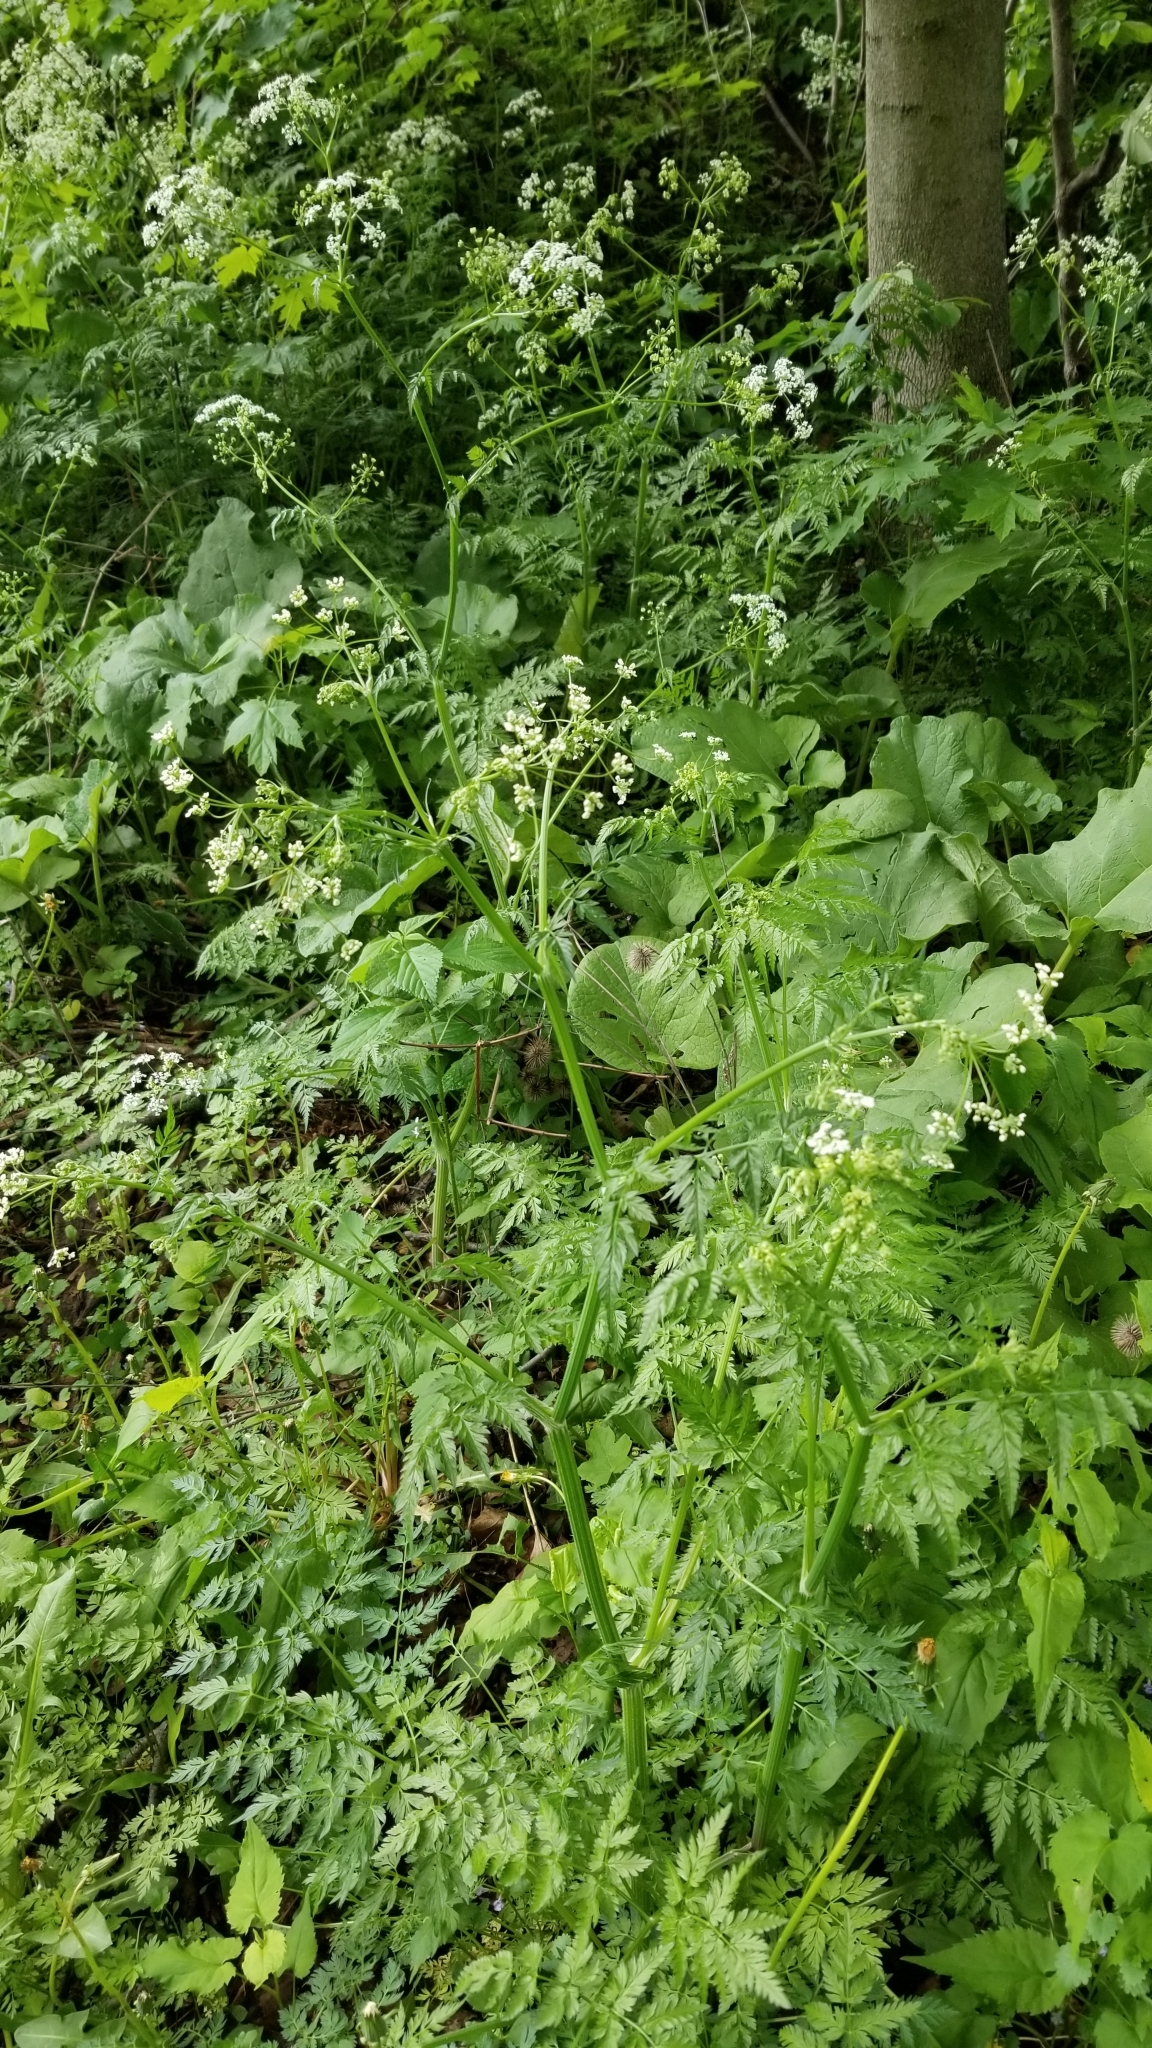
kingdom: Plantae
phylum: Tracheophyta
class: Magnoliopsida
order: Apiales
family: Apiaceae
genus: Anthriscus
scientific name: Anthriscus sylvestris
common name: Cow parsley
